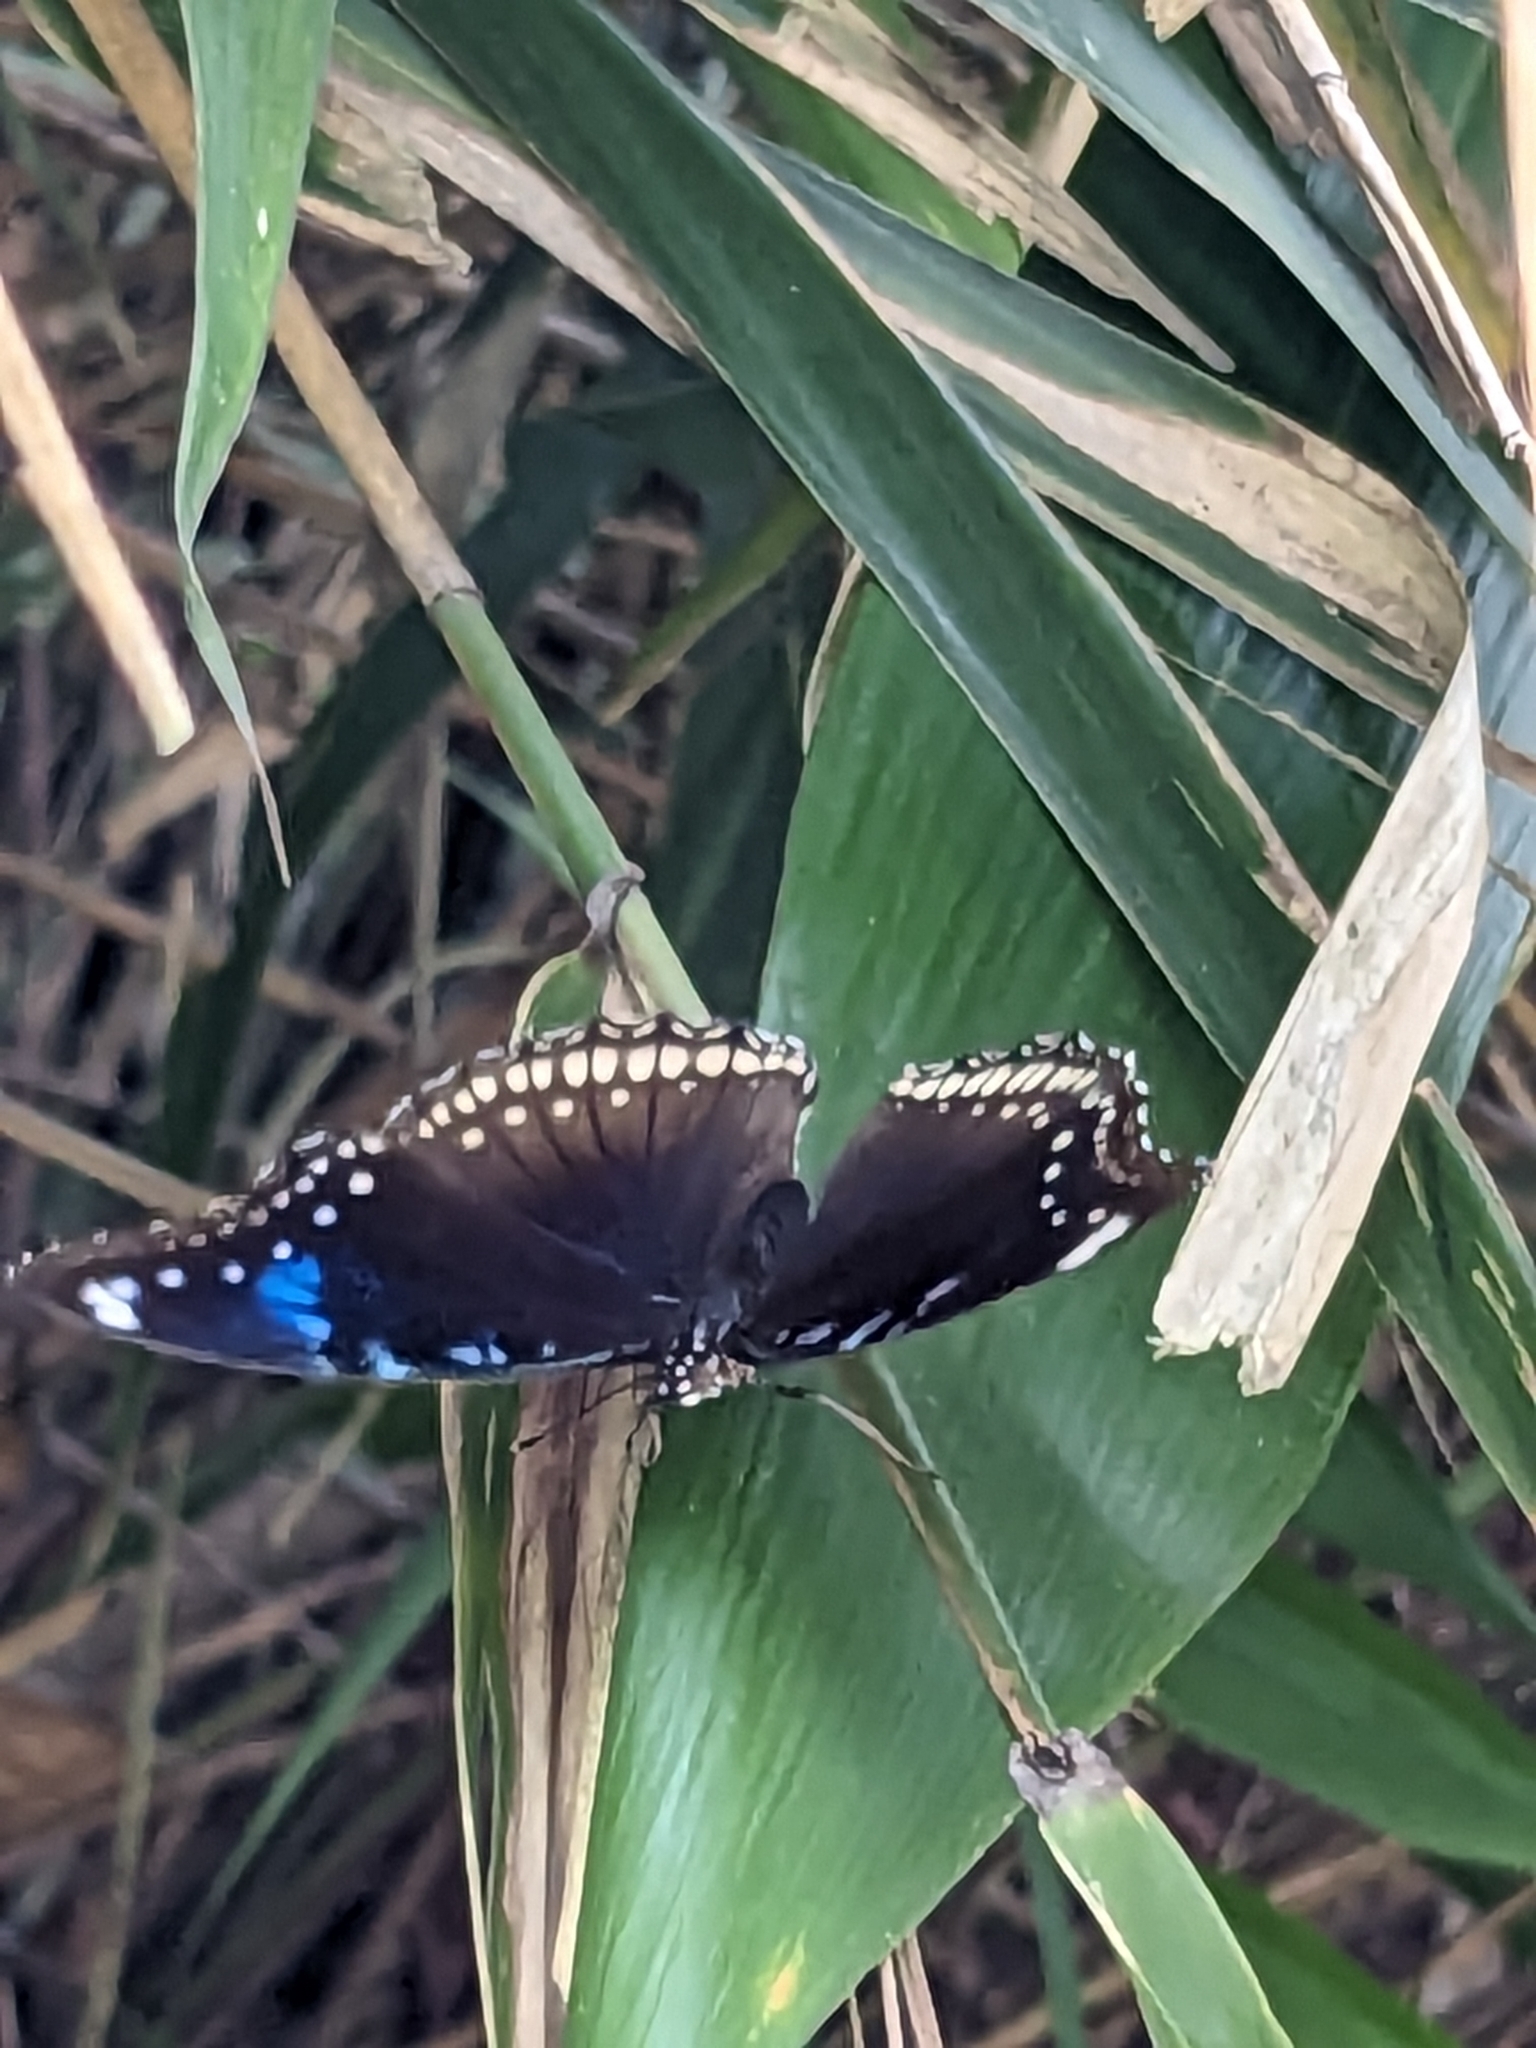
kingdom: Animalia
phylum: Arthropoda
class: Insecta
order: Lepidoptera
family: Nymphalidae
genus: Hypolimnas
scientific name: Hypolimnas bolina
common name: Great eggfly
